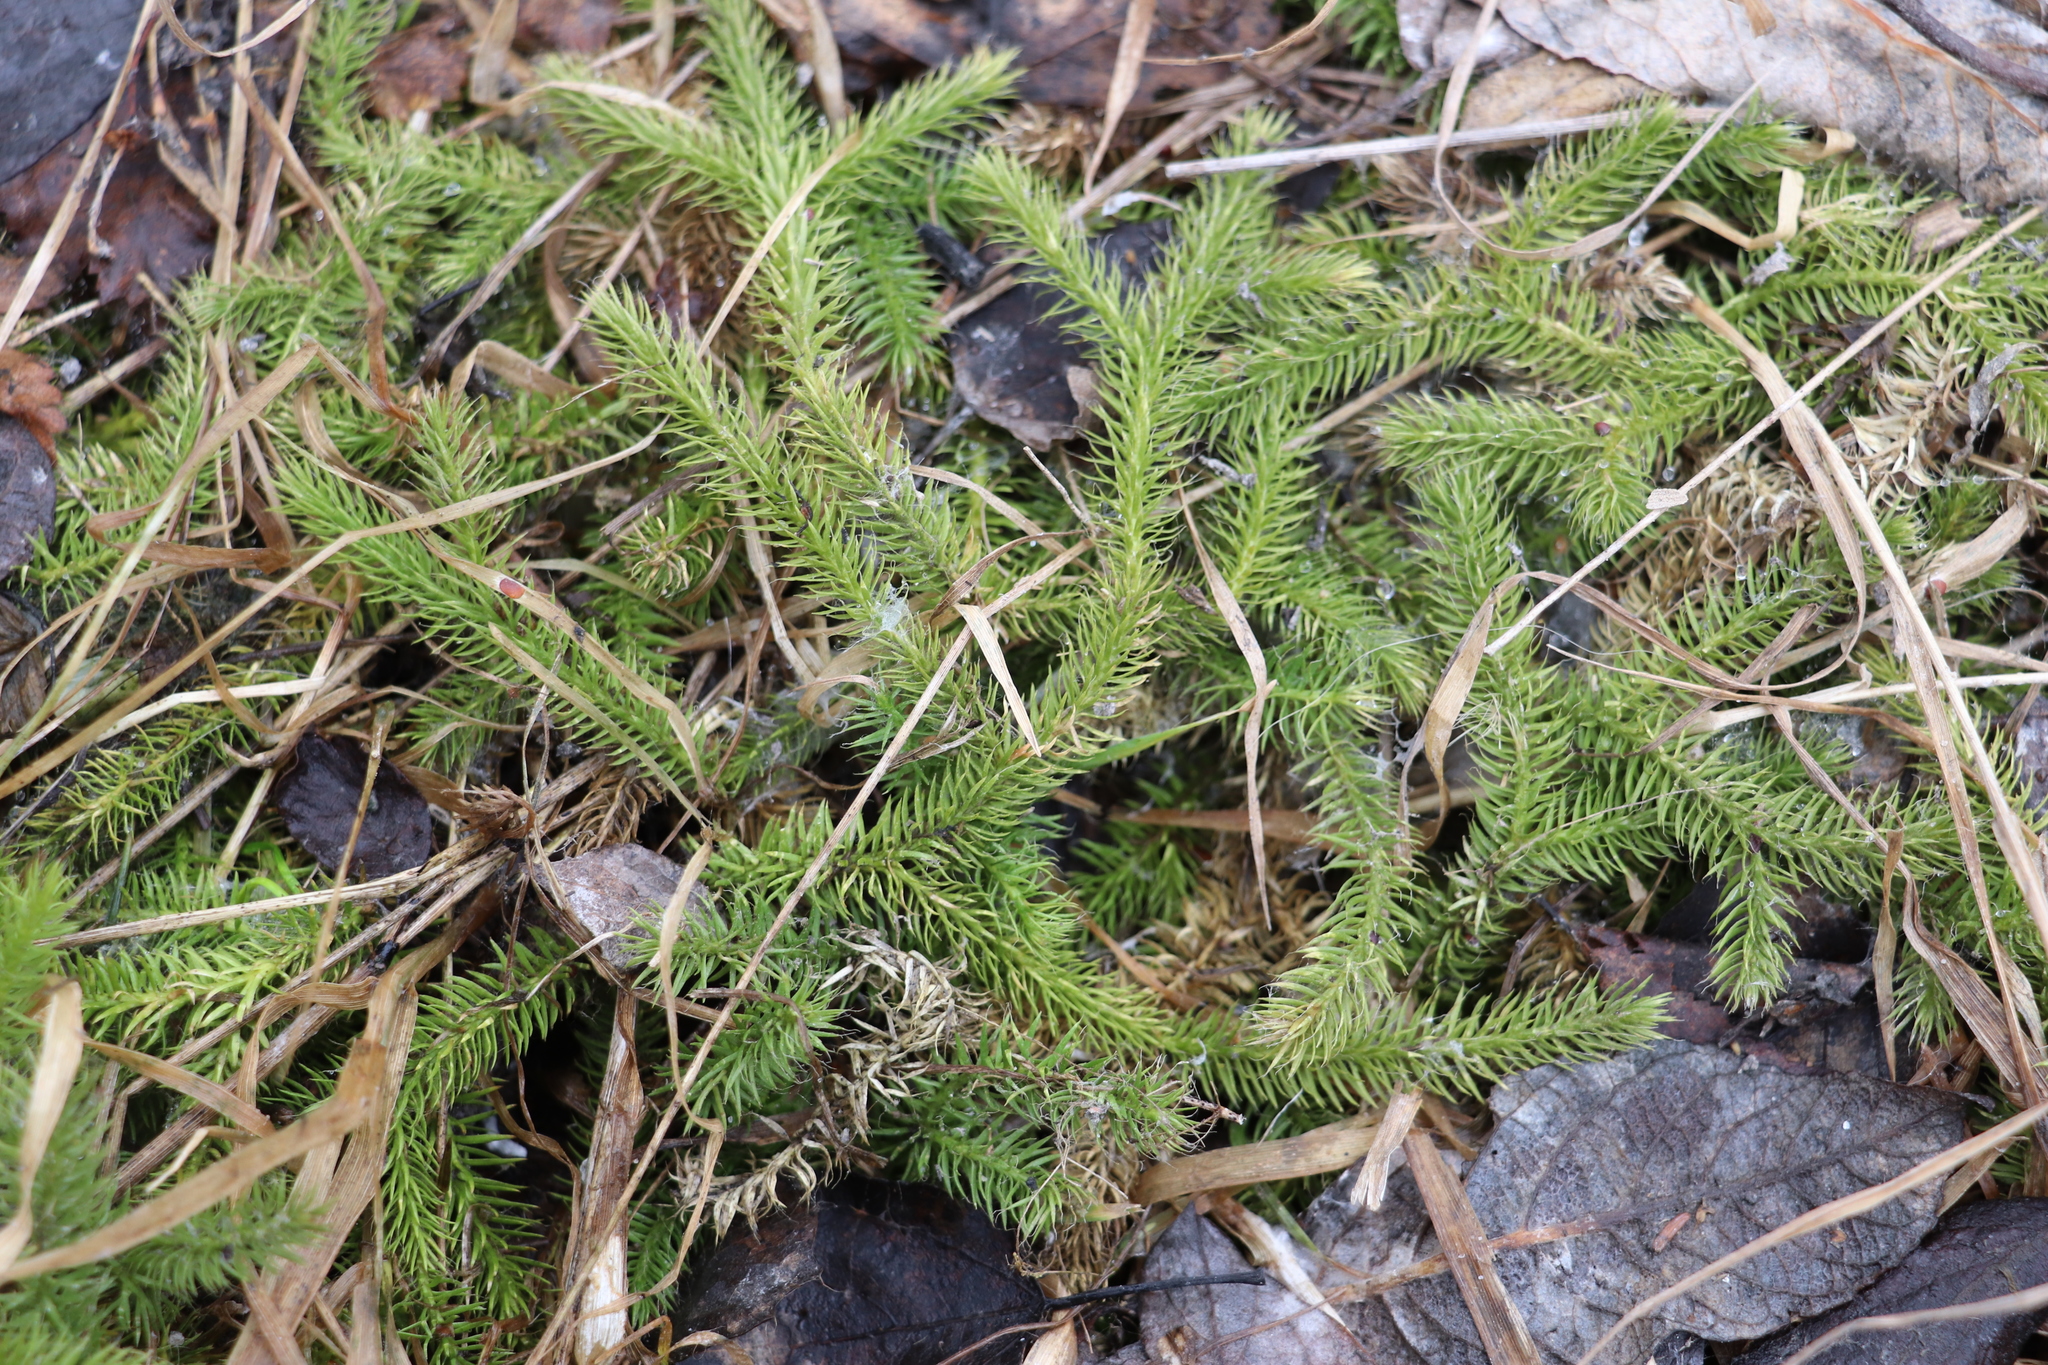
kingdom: Plantae
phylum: Tracheophyta
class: Lycopodiopsida
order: Lycopodiales
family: Lycopodiaceae
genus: Lycopodium
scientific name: Lycopodium clavatum
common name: Stag's-horn clubmoss
